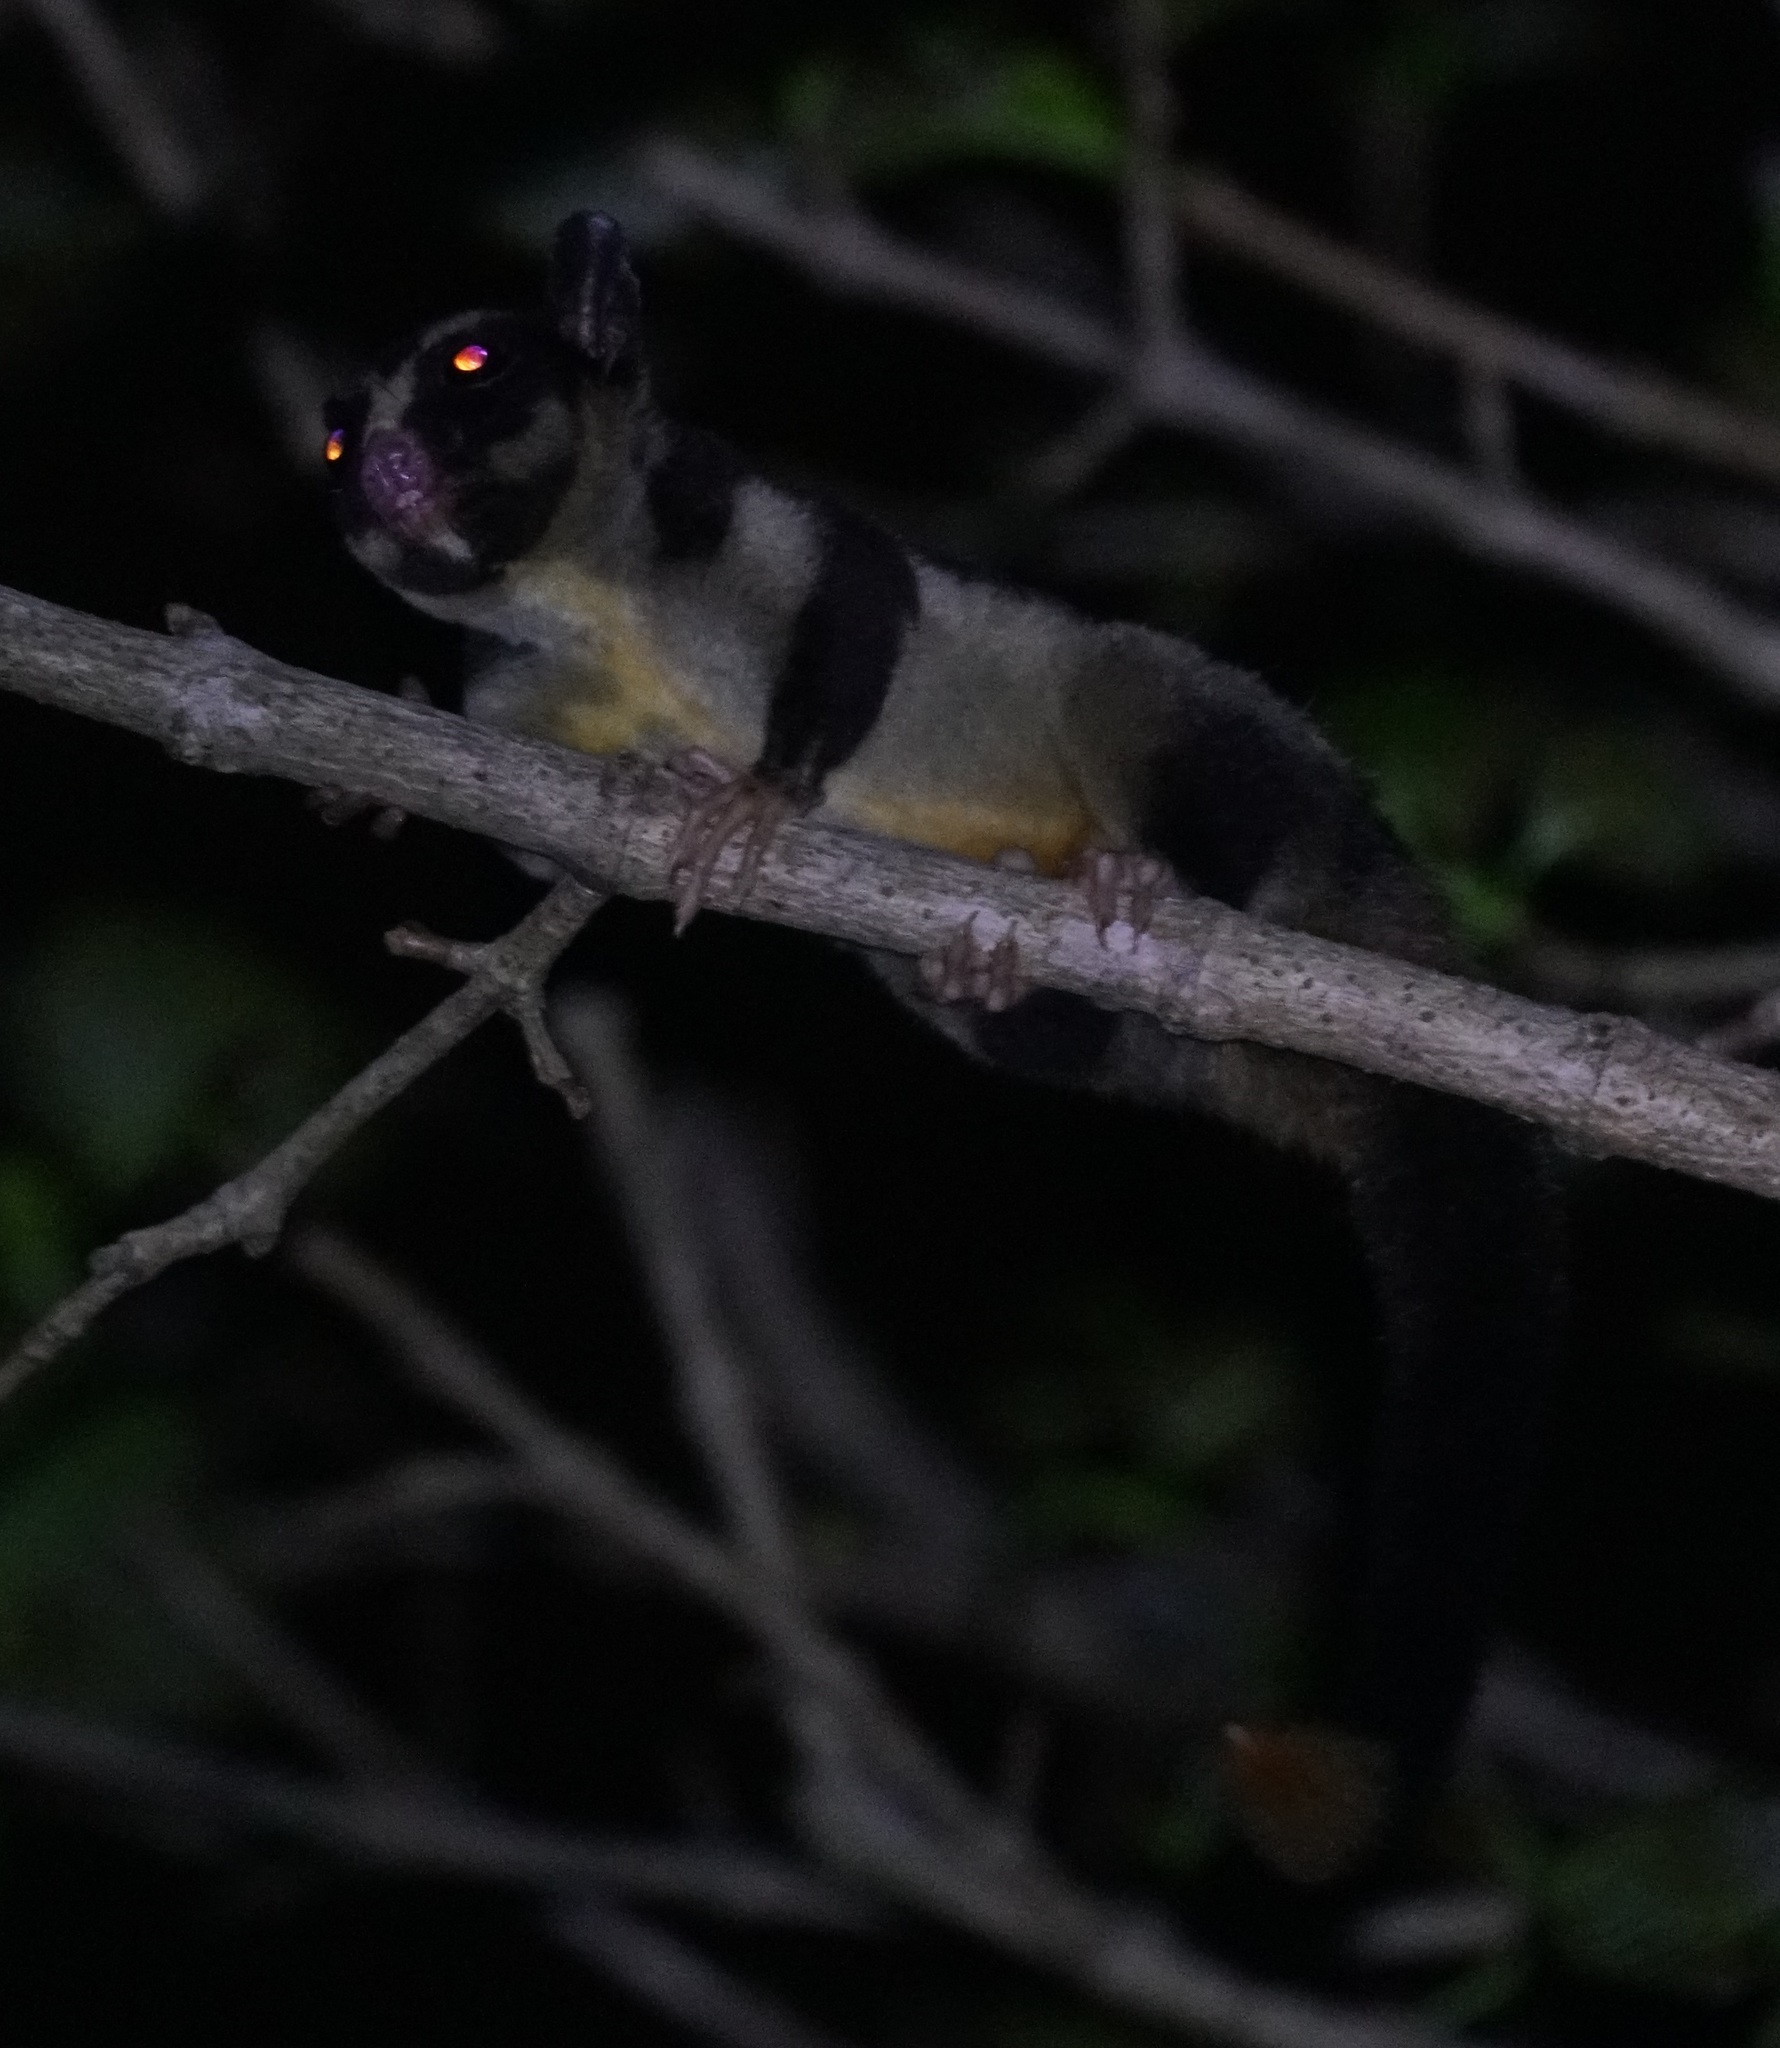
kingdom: Animalia
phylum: Chordata
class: Mammalia
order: Diprotodontia
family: Petauridae
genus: Dactylopsila
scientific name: Dactylopsila trivirgata
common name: Striped possum
